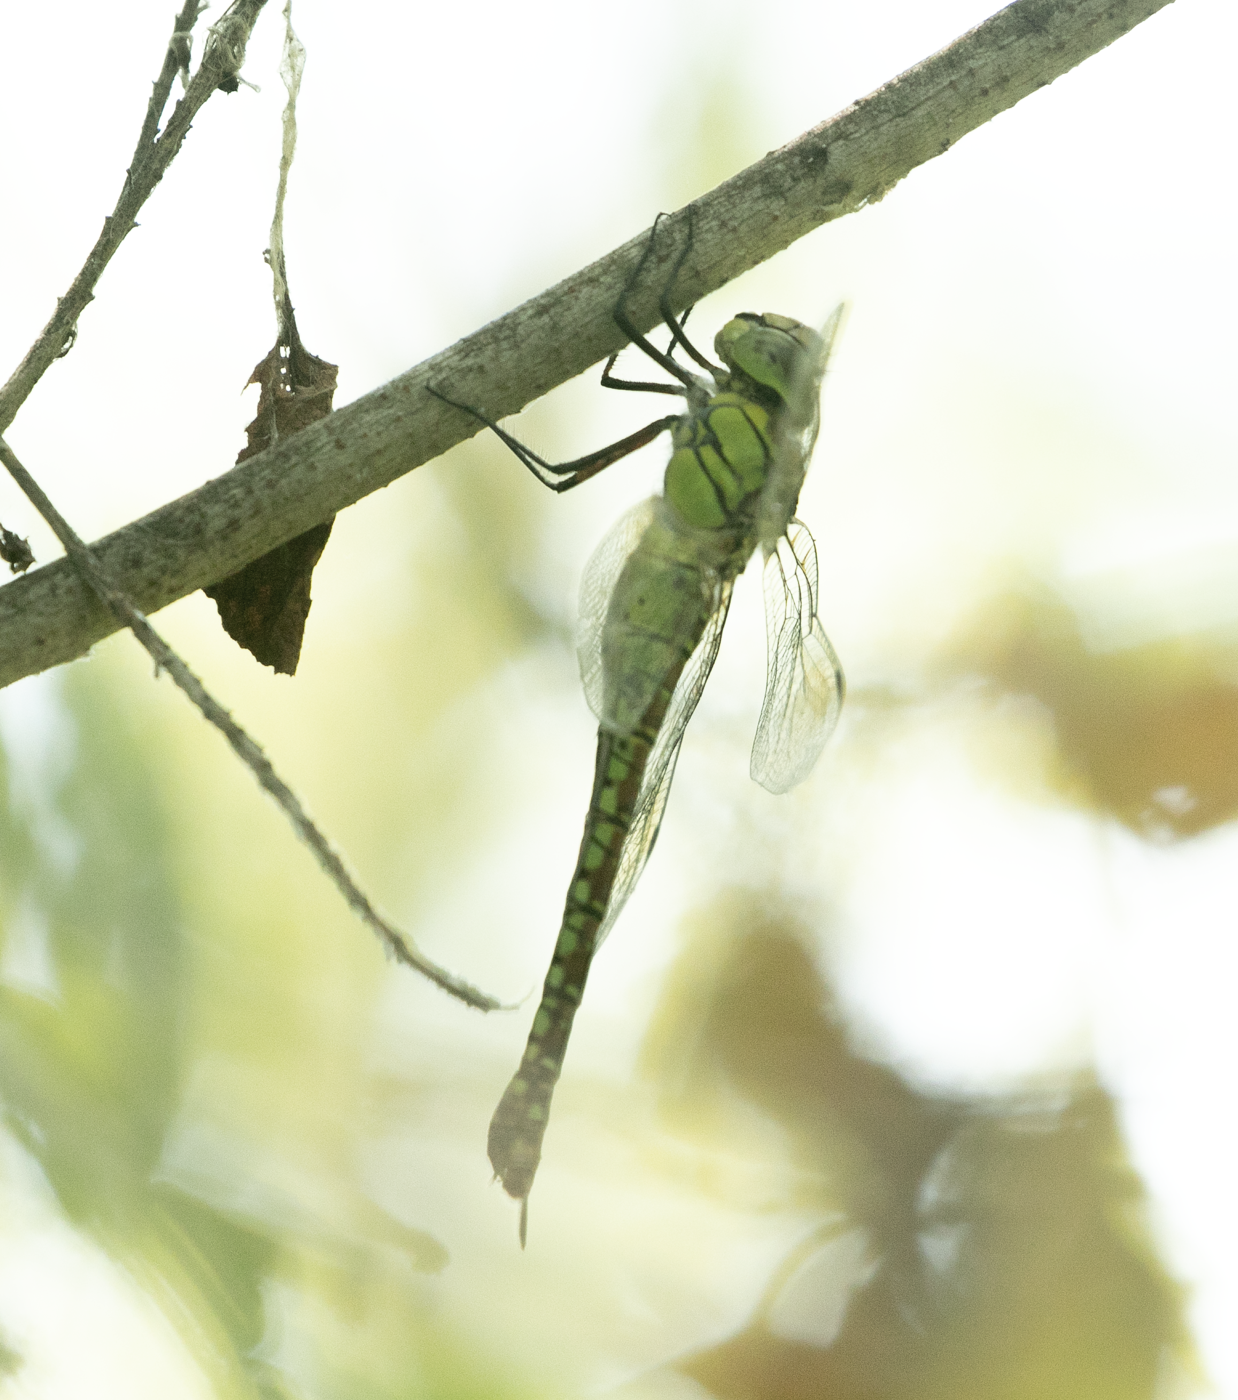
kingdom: Animalia
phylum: Arthropoda
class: Insecta
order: Odonata
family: Aeshnidae
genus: Aeshna
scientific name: Aeshna affinis
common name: Southern migrant hawker
